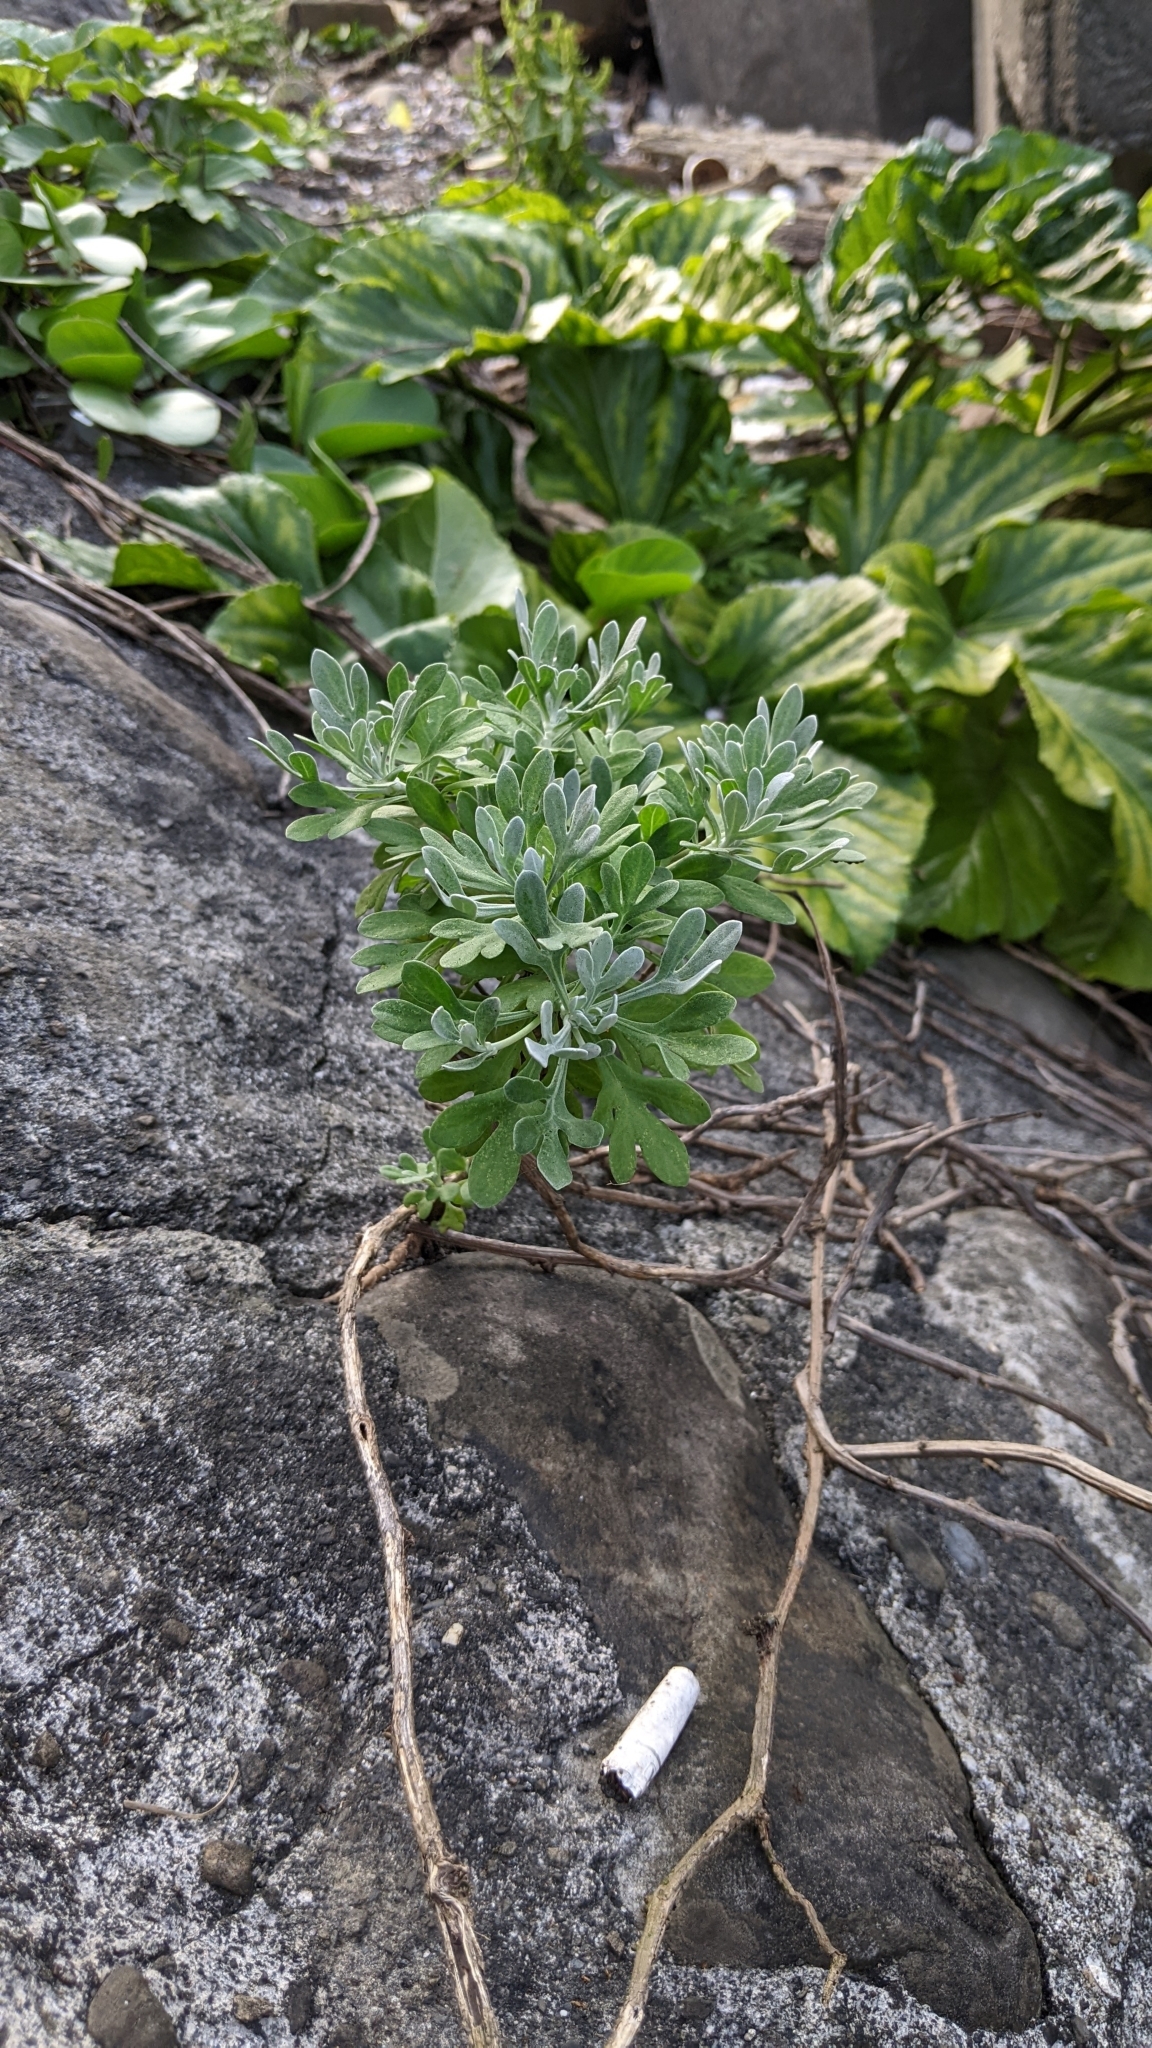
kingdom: Plantae
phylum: Tracheophyta
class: Magnoliopsida
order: Asterales
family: Asteraceae
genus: Crossostephium
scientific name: Crossostephium chinense
